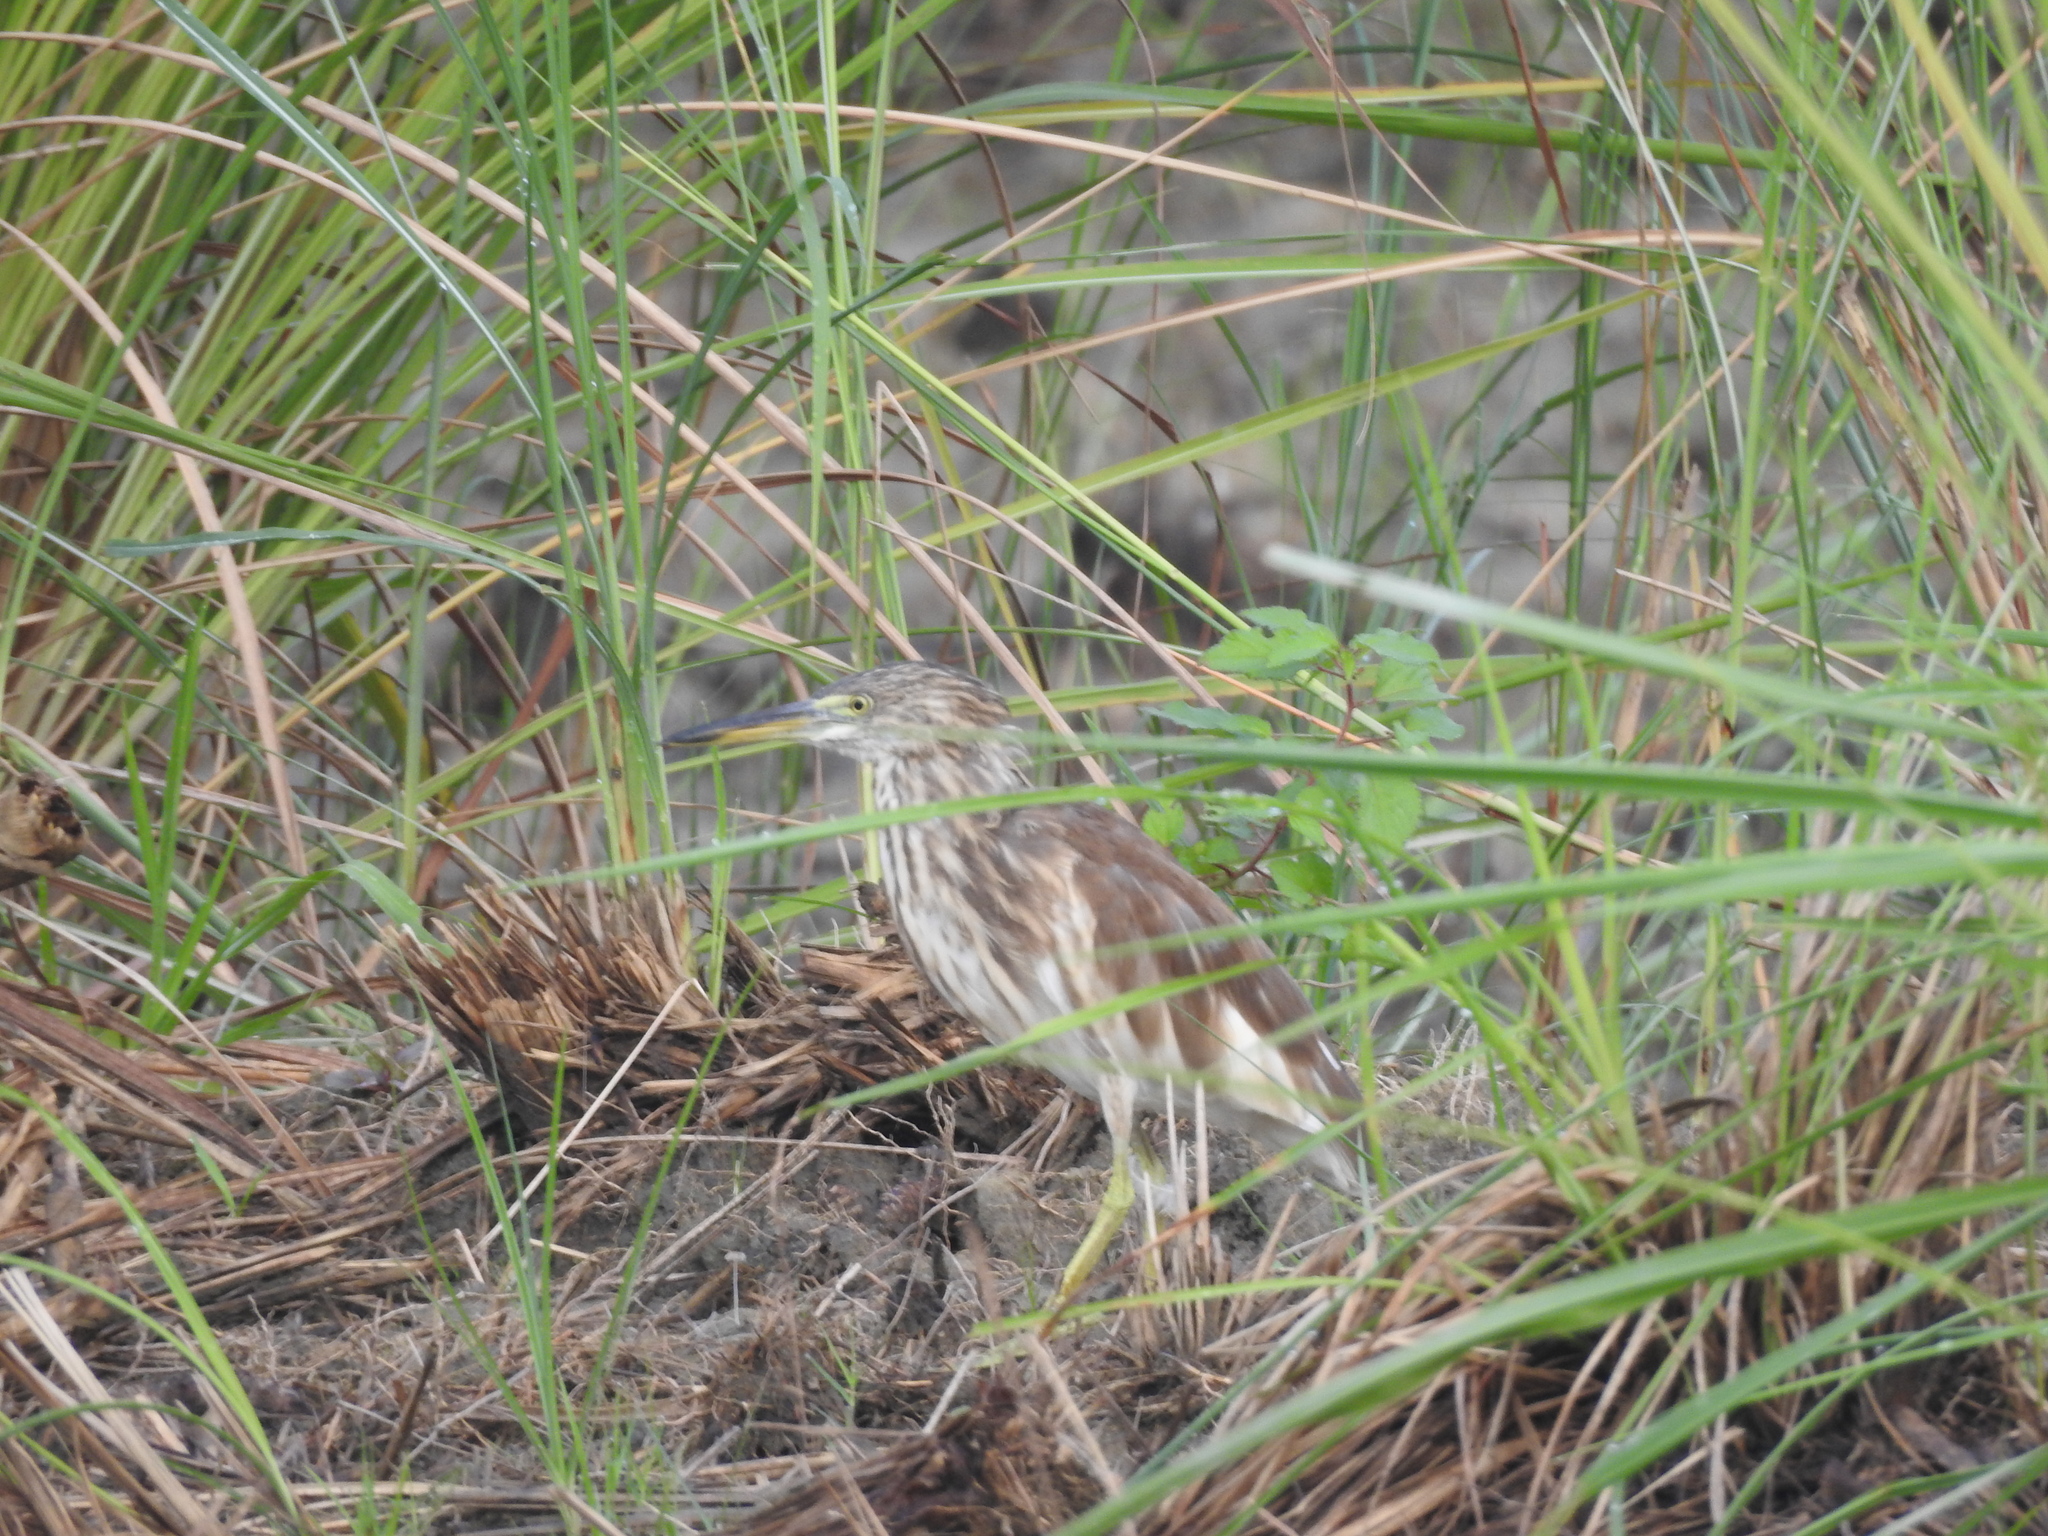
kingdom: Animalia
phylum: Chordata
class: Aves
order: Pelecaniformes
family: Ardeidae
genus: Ardeola
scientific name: Ardeola grayii
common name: Indian pond heron
